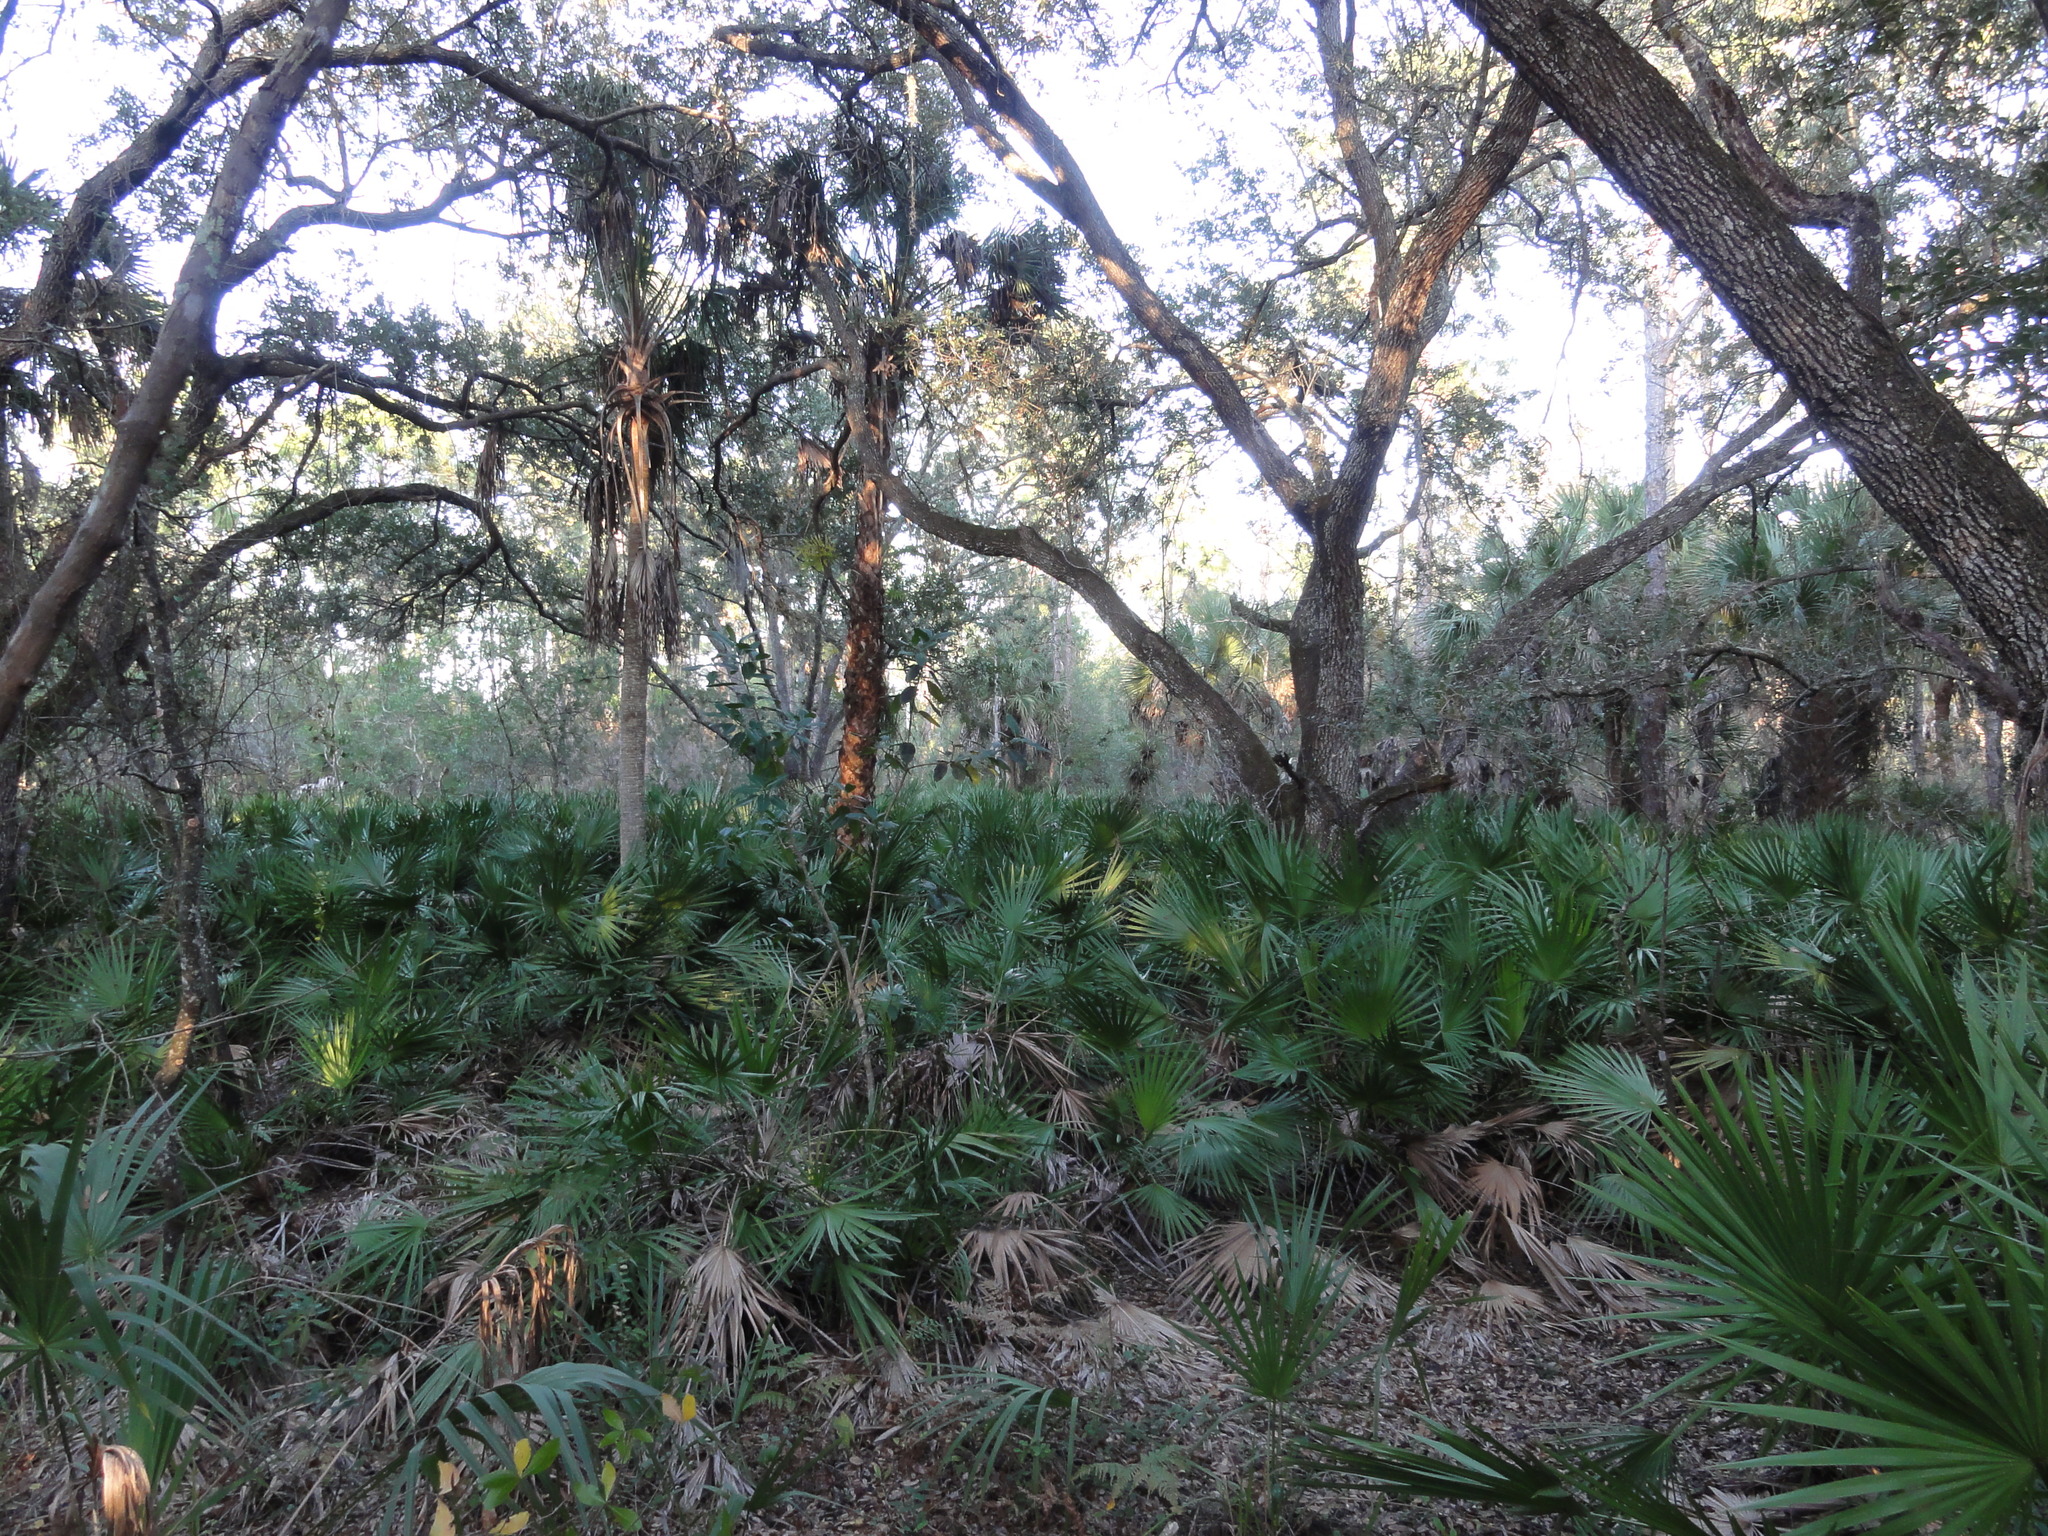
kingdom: Plantae
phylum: Tracheophyta
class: Liliopsida
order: Arecales
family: Arecaceae
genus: Sabal
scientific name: Sabal palmetto
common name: Blue palmetto
